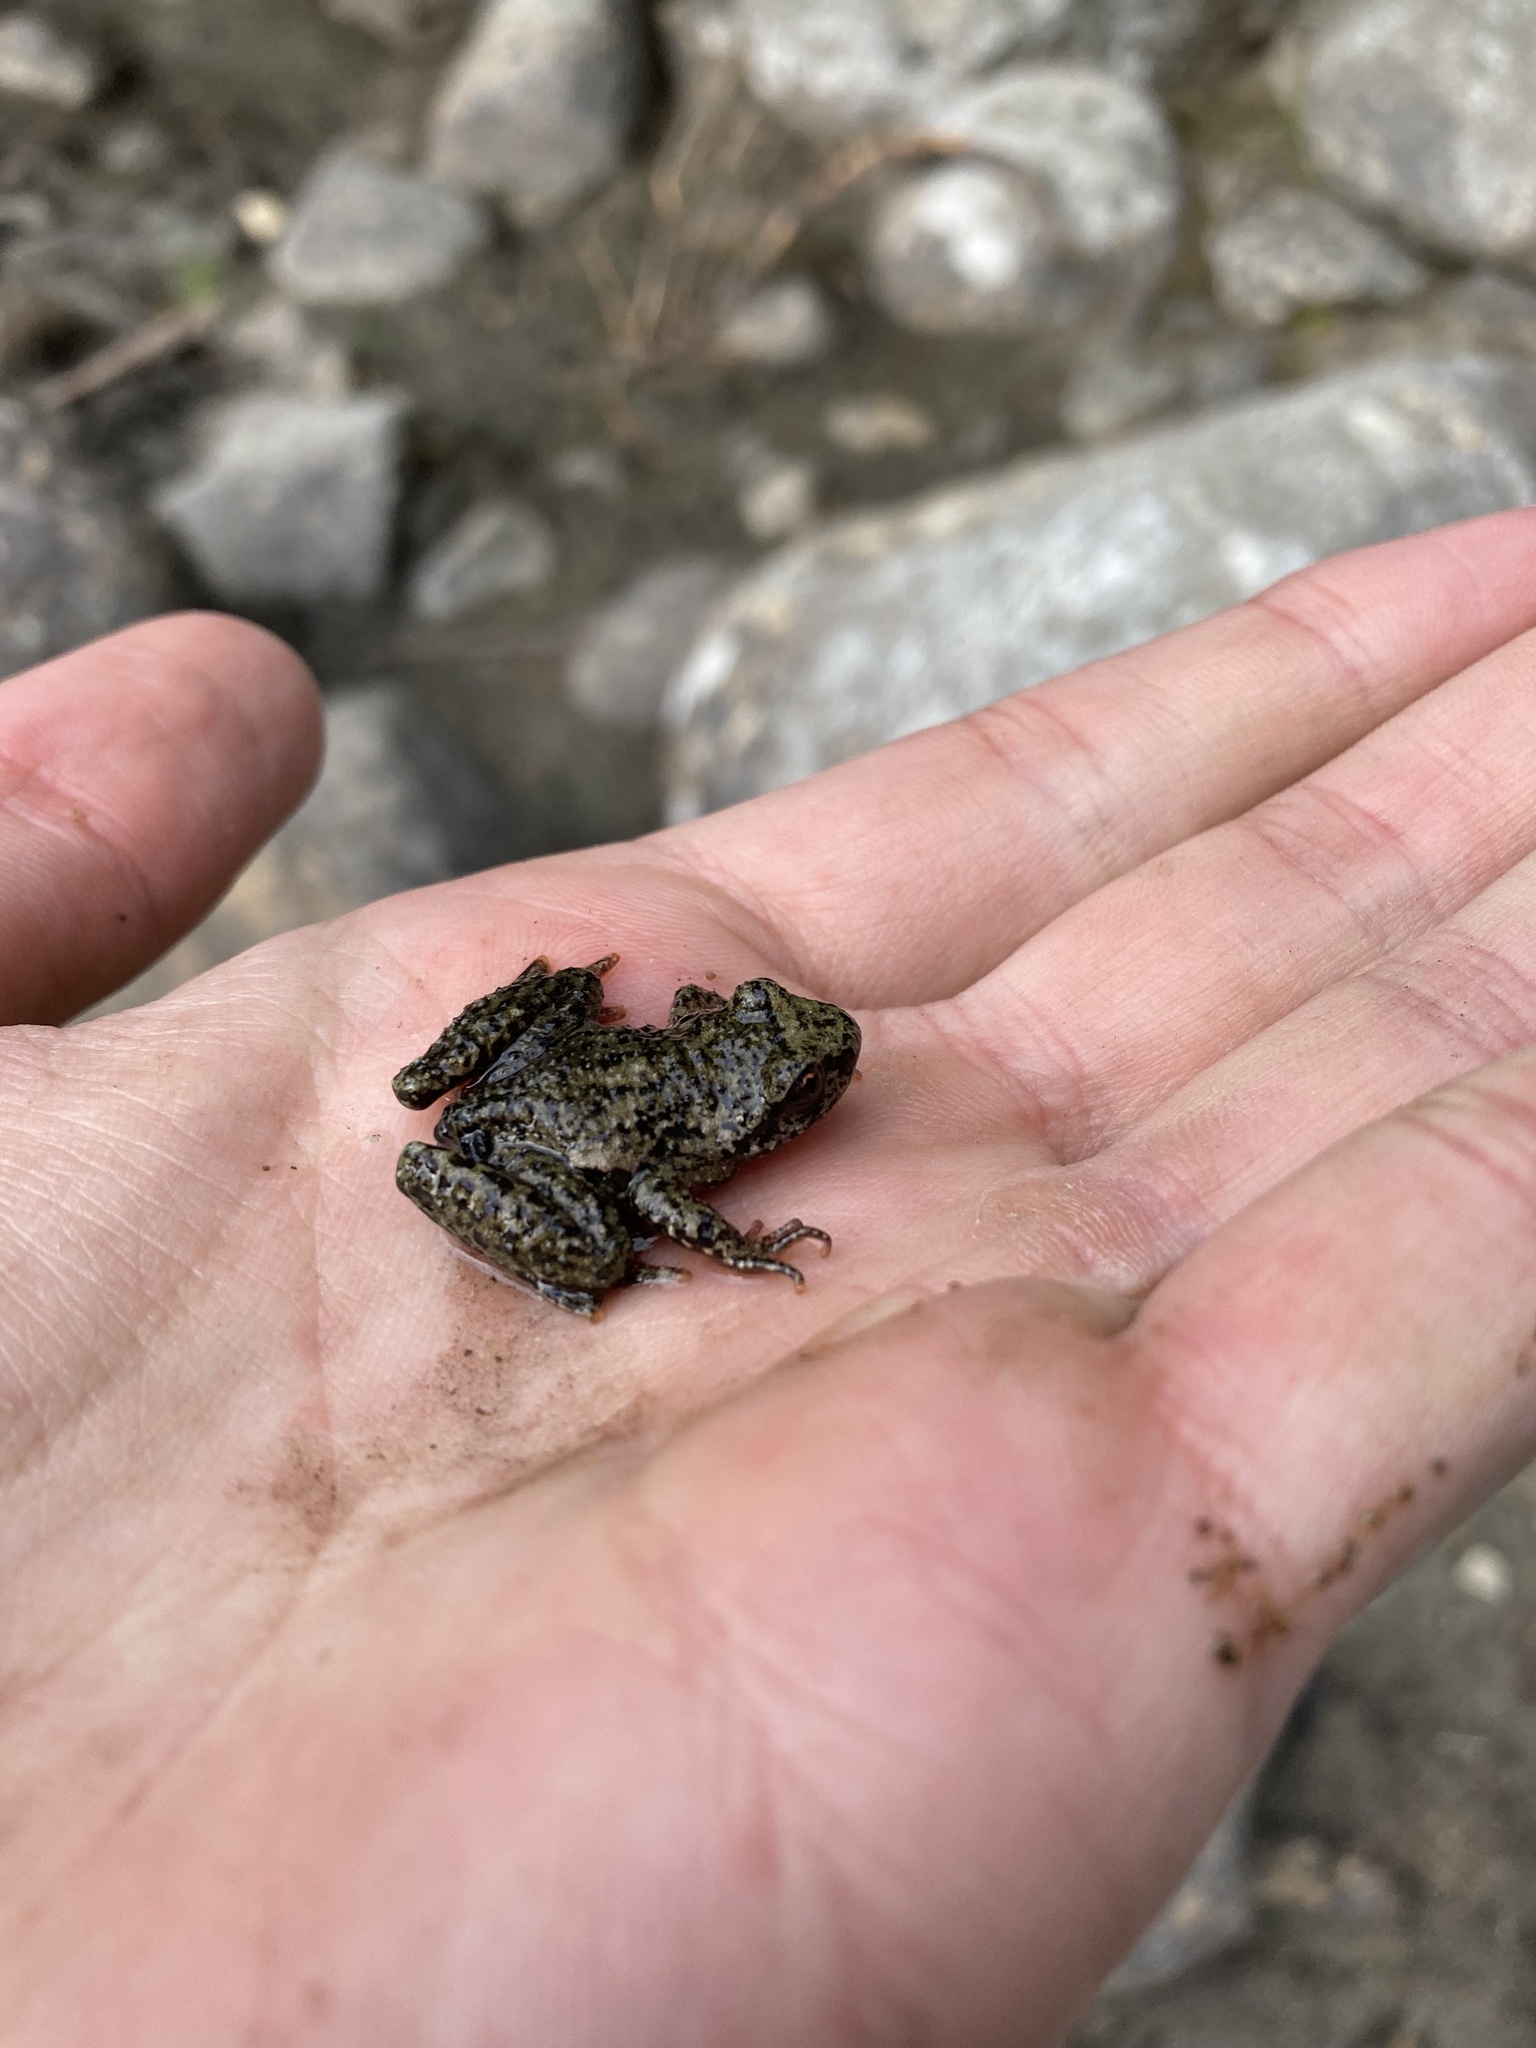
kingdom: Animalia
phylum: Chordata
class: Amphibia
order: Anura
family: Ascaphidae
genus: Ascaphus
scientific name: Ascaphus truei
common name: Tailed frog
